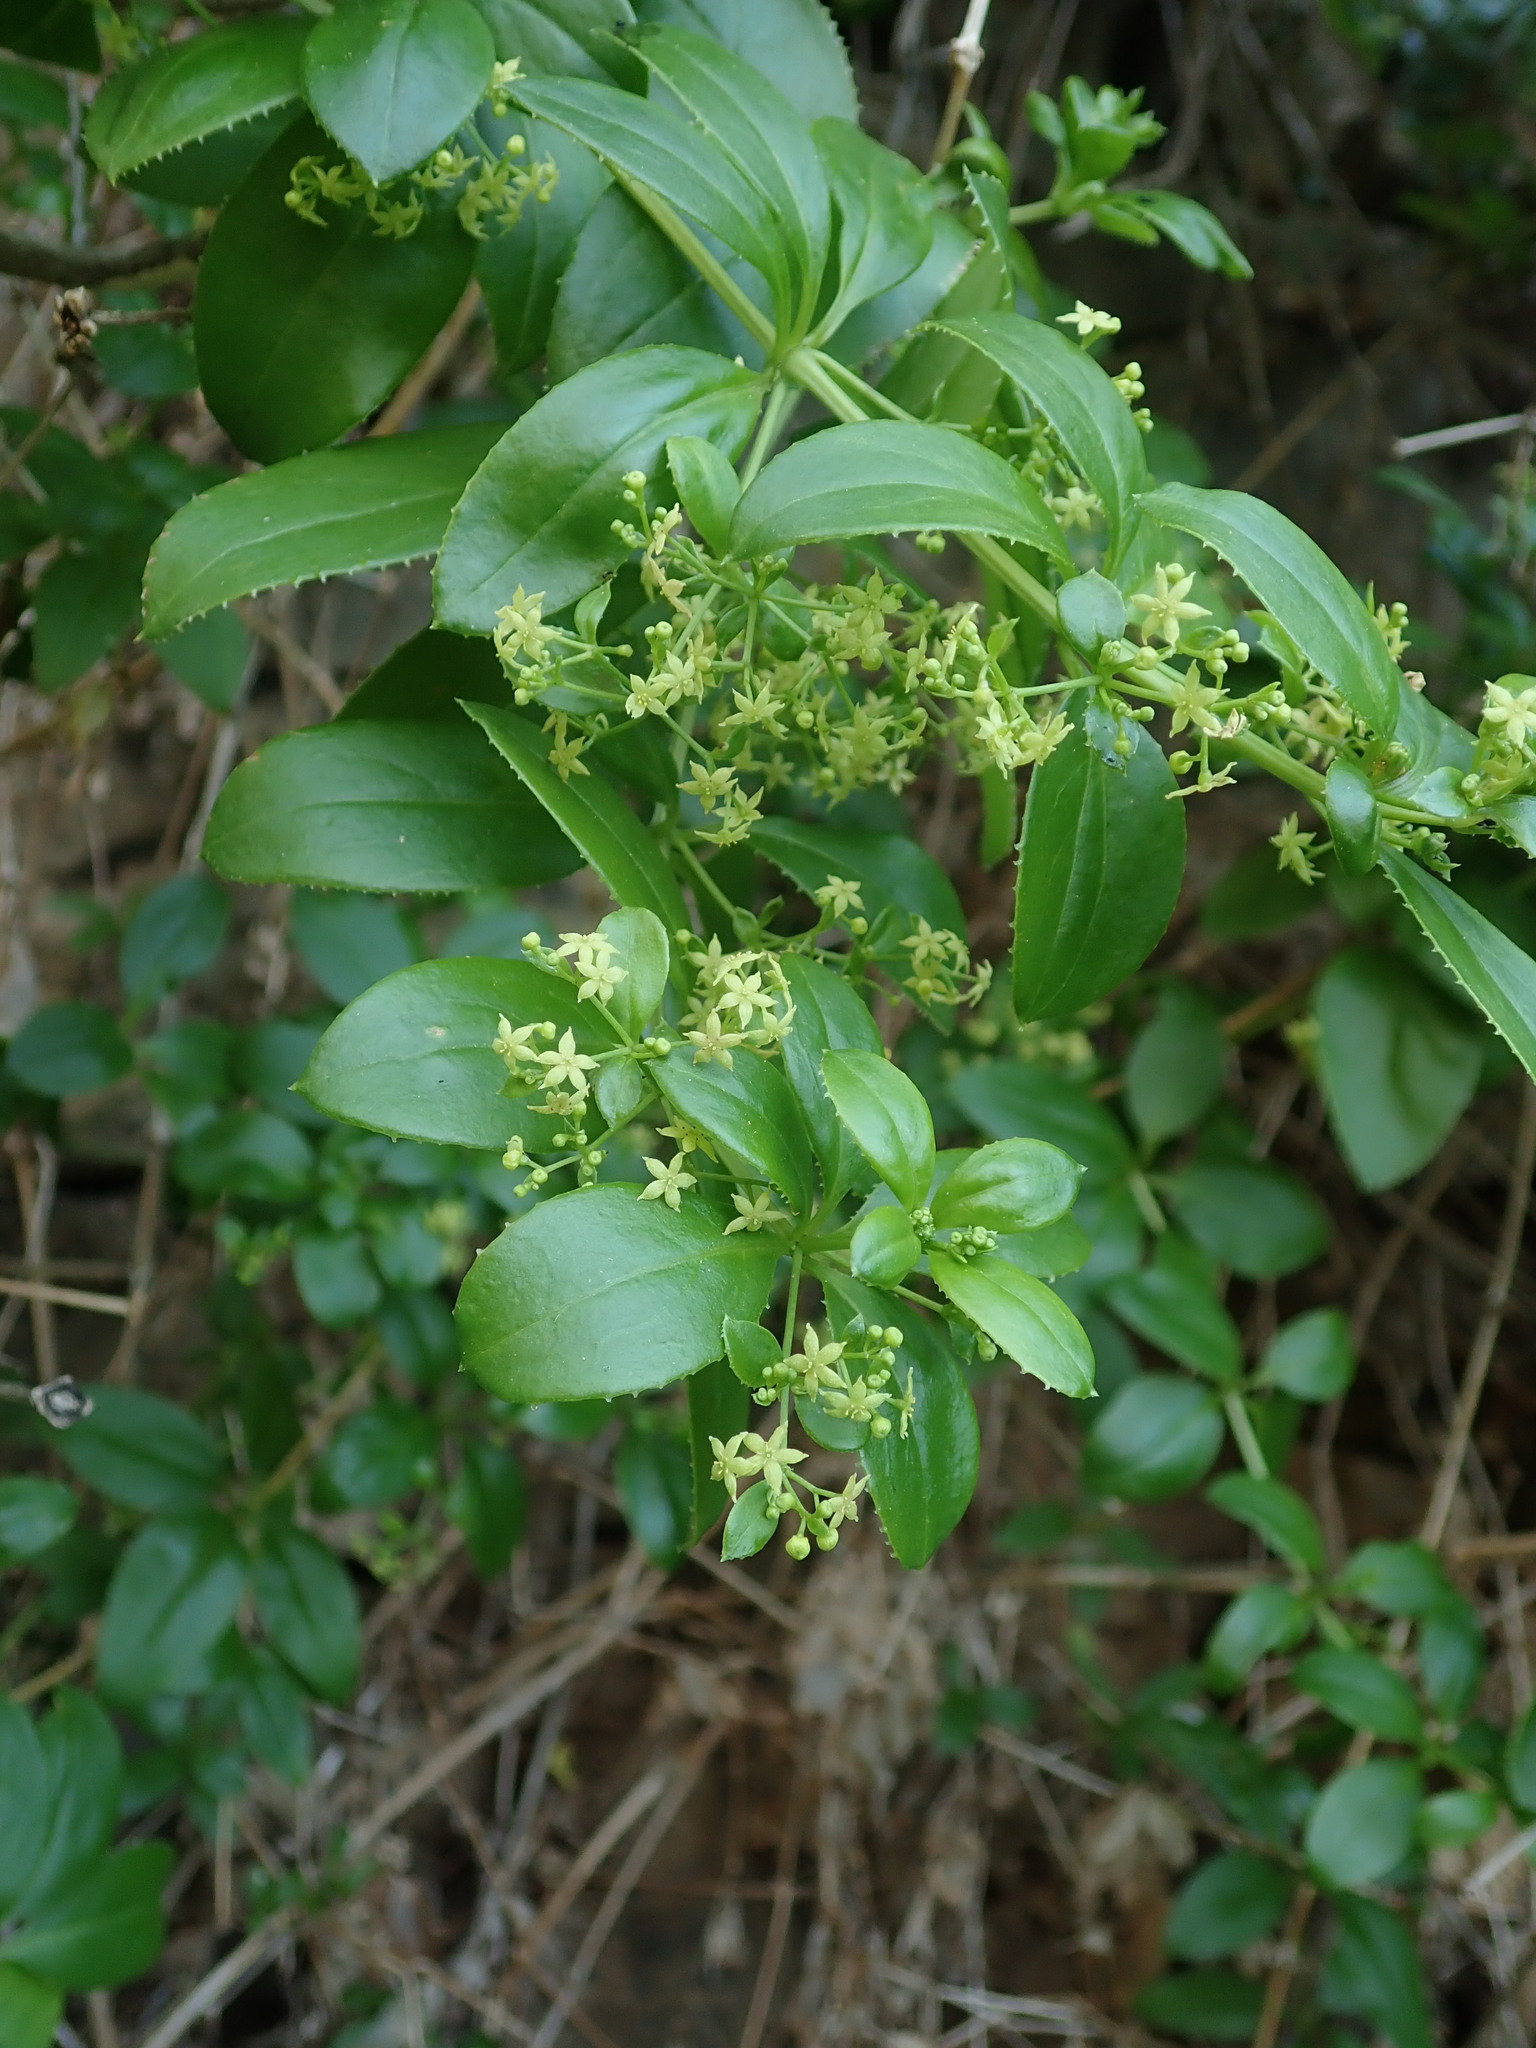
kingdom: Plantae
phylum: Tracheophyta
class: Magnoliopsida
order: Gentianales
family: Rubiaceae
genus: Rubia
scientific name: Rubia fruticosa
